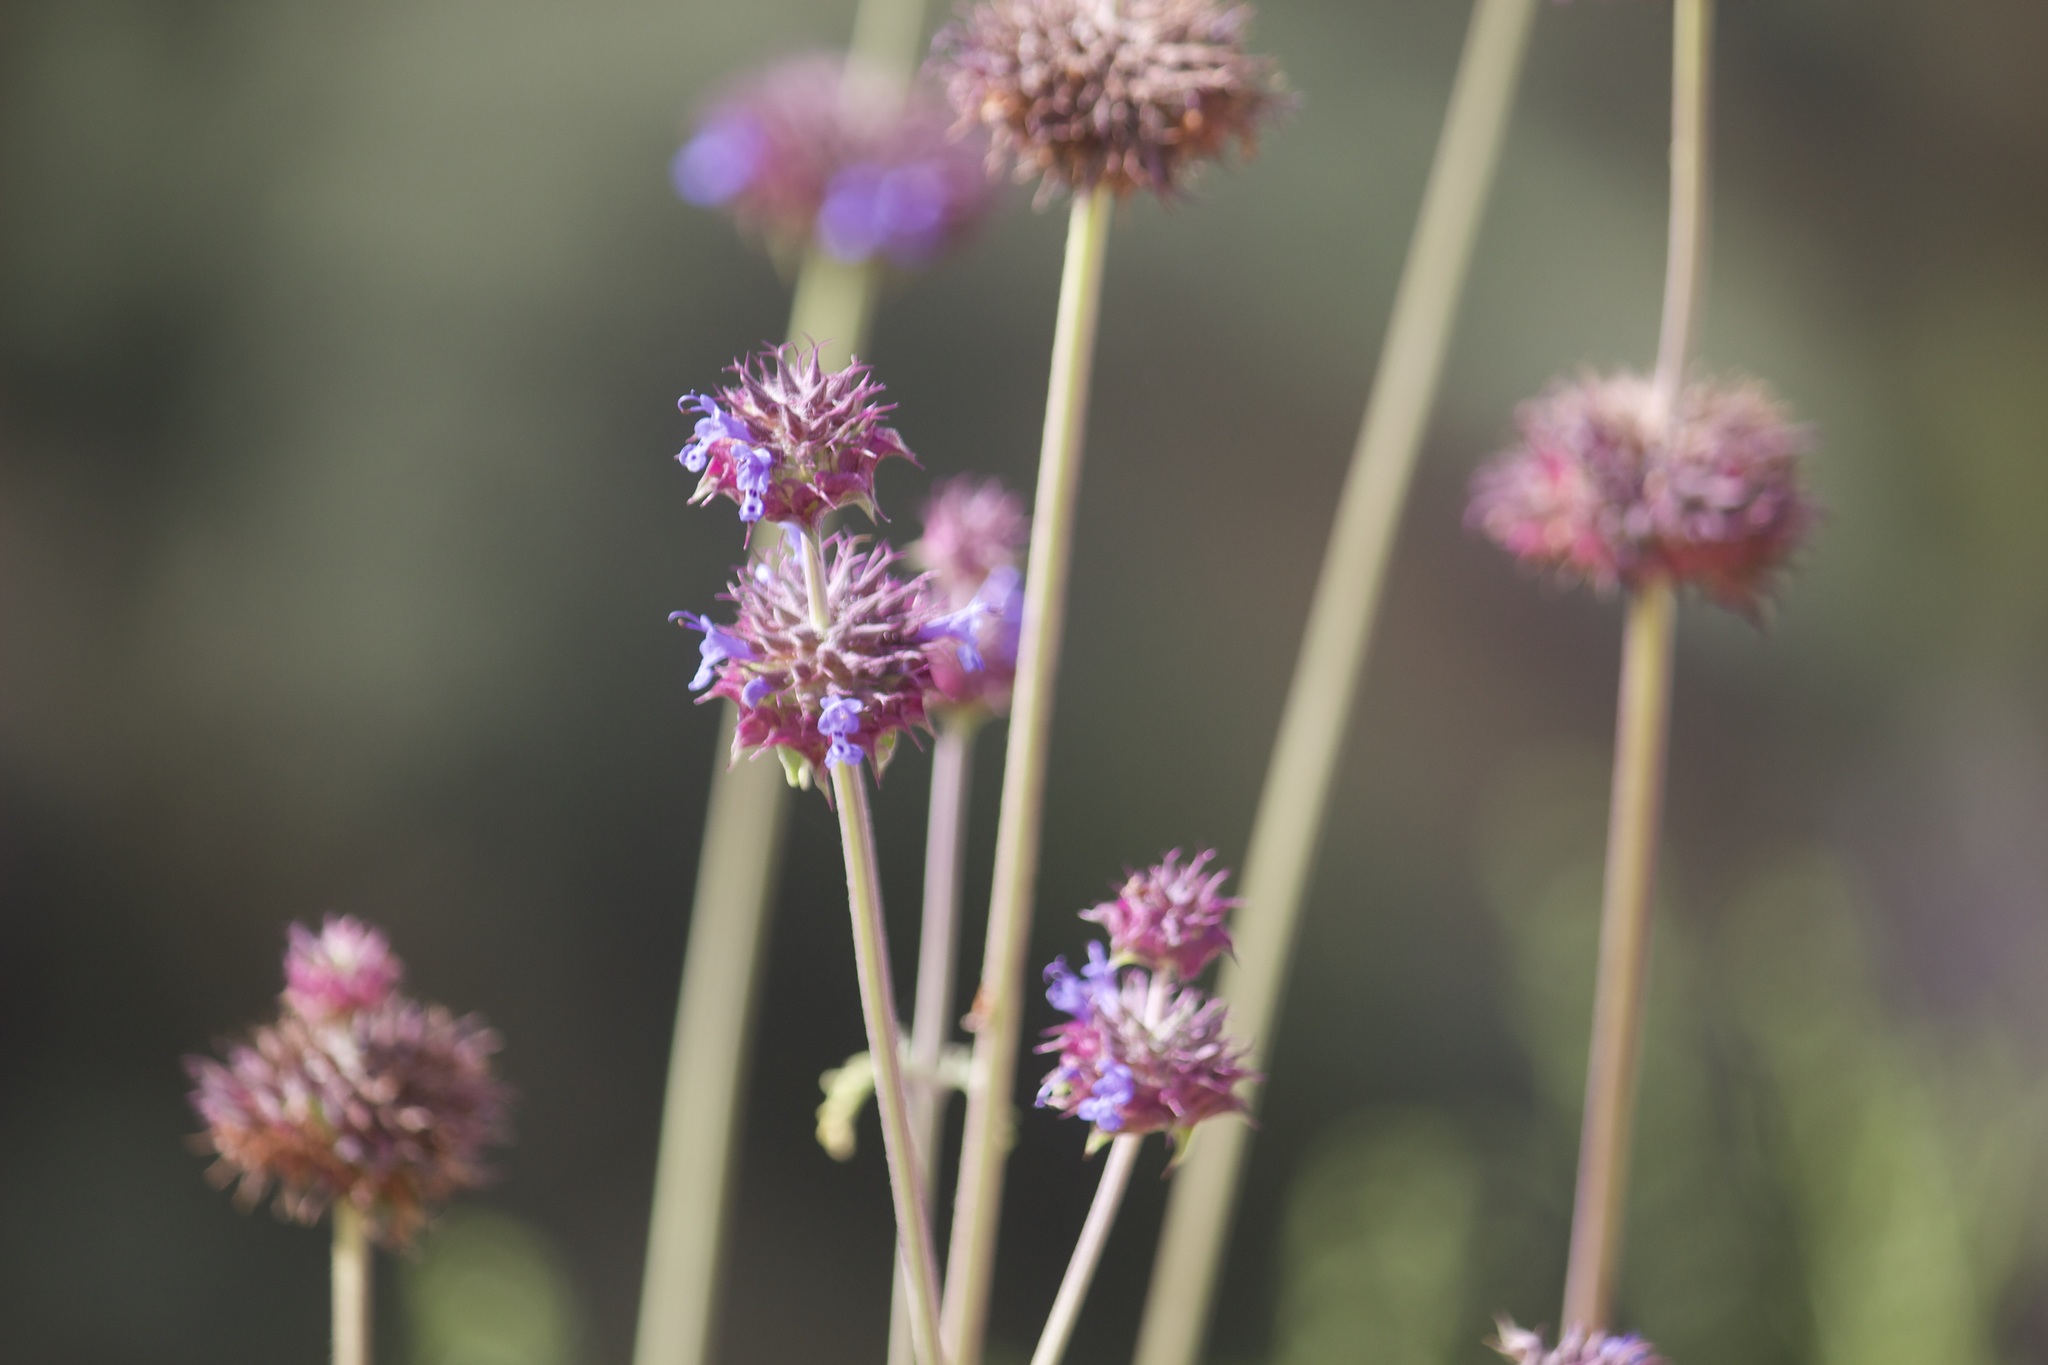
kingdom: Plantae
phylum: Tracheophyta
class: Magnoliopsida
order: Lamiales
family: Lamiaceae
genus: Salvia
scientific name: Salvia columbariae
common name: Chia
